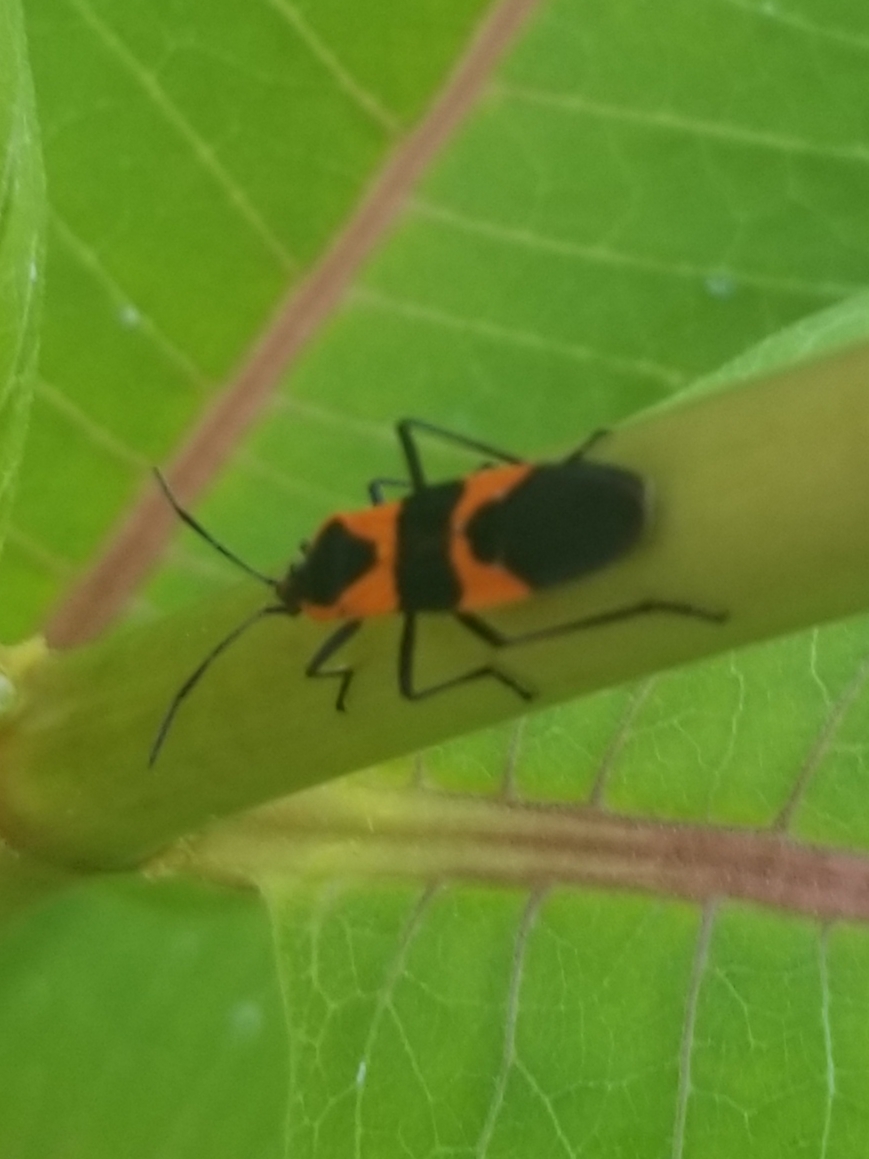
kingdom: Animalia
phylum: Arthropoda
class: Insecta
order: Hemiptera
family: Lygaeidae
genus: Oncopeltus
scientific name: Oncopeltus fasciatus
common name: Large milkweed bug
